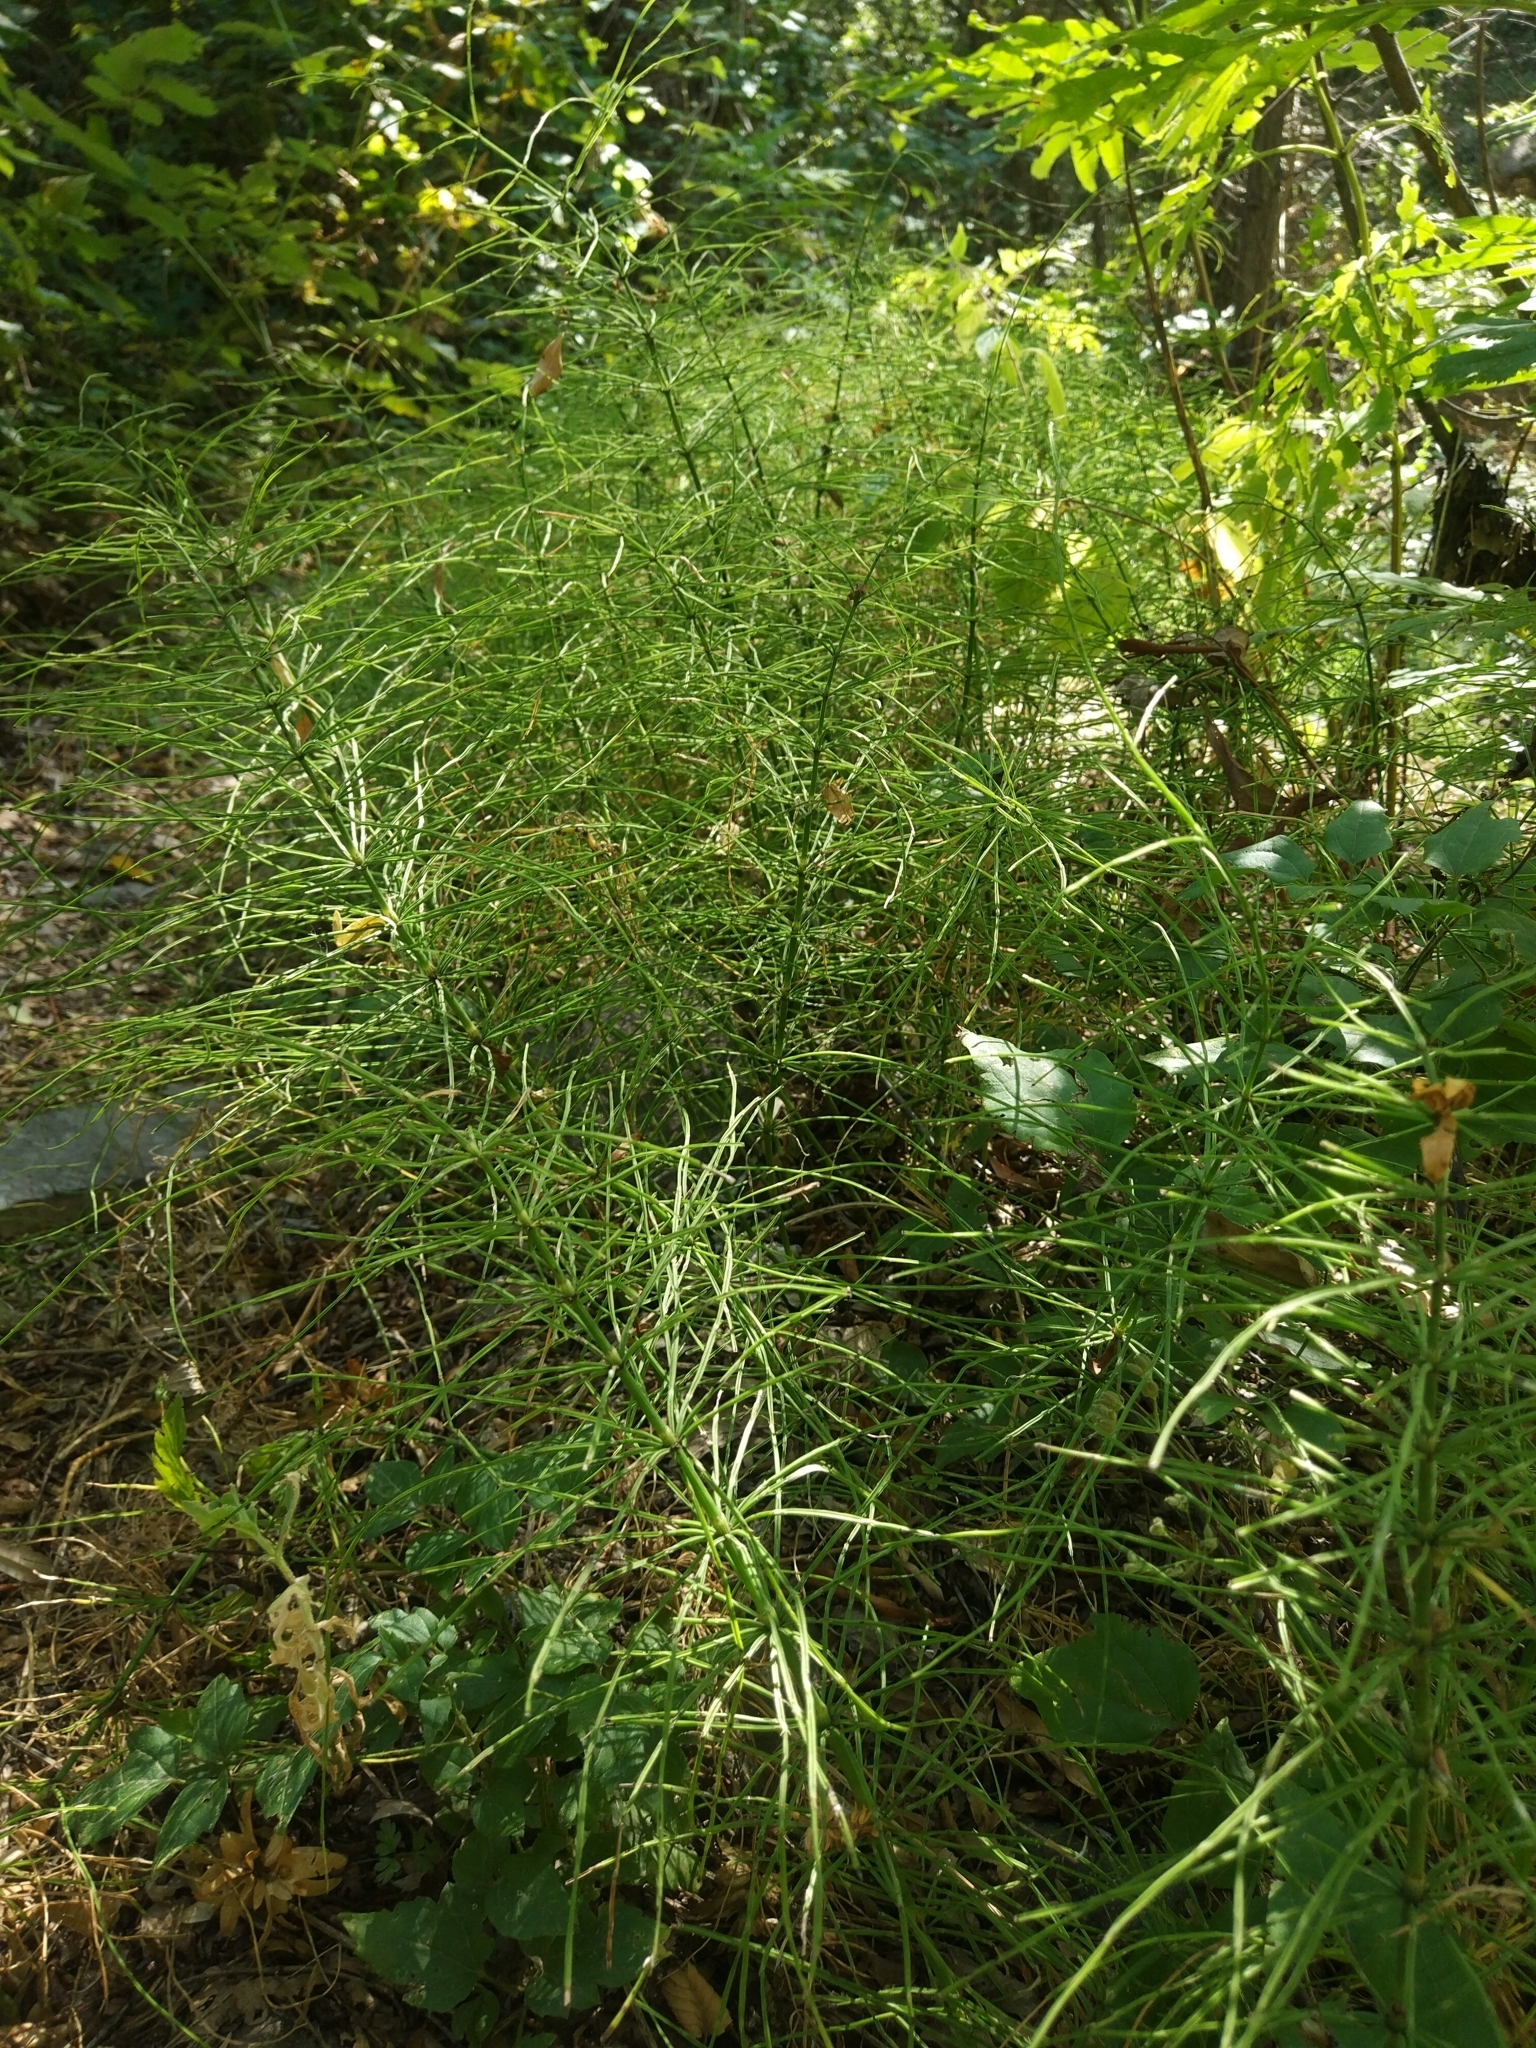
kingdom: Plantae
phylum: Tracheophyta
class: Polypodiopsida
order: Equisetales
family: Equisetaceae
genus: Equisetum
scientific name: Equisetum arvense
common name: Field horsetail
